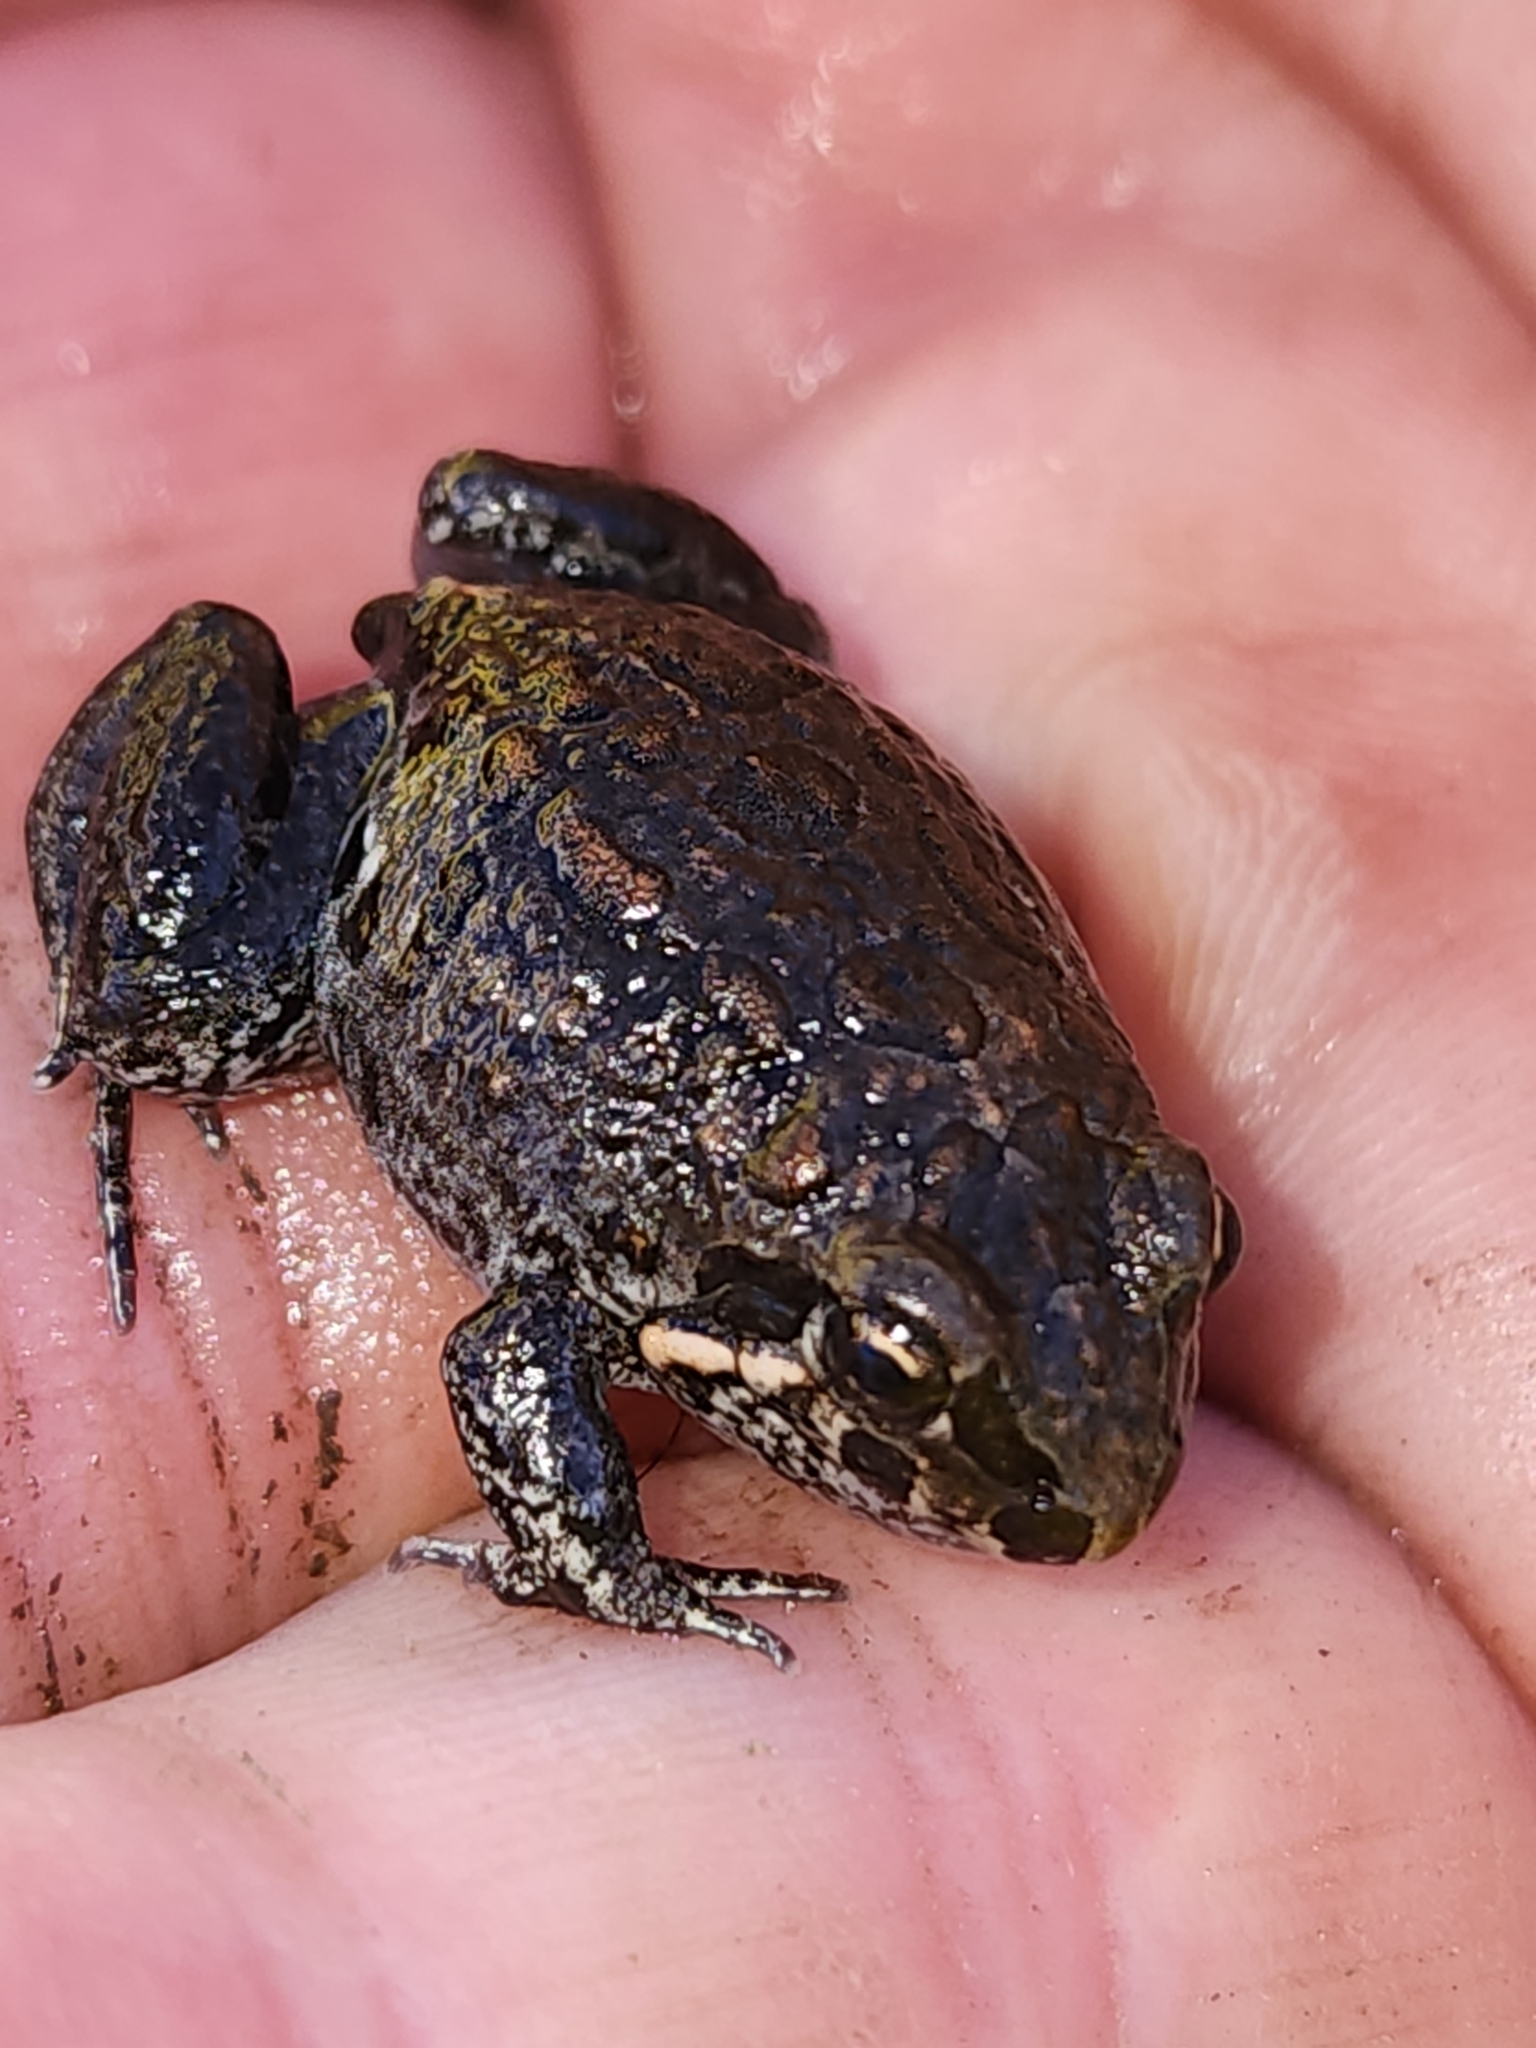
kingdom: Animalia
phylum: Chordata
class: Amphibia
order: Anura
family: Limnodynastidae
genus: Limnodynastes
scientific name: Limnodynastes convexiusculus
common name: Marbled frog
